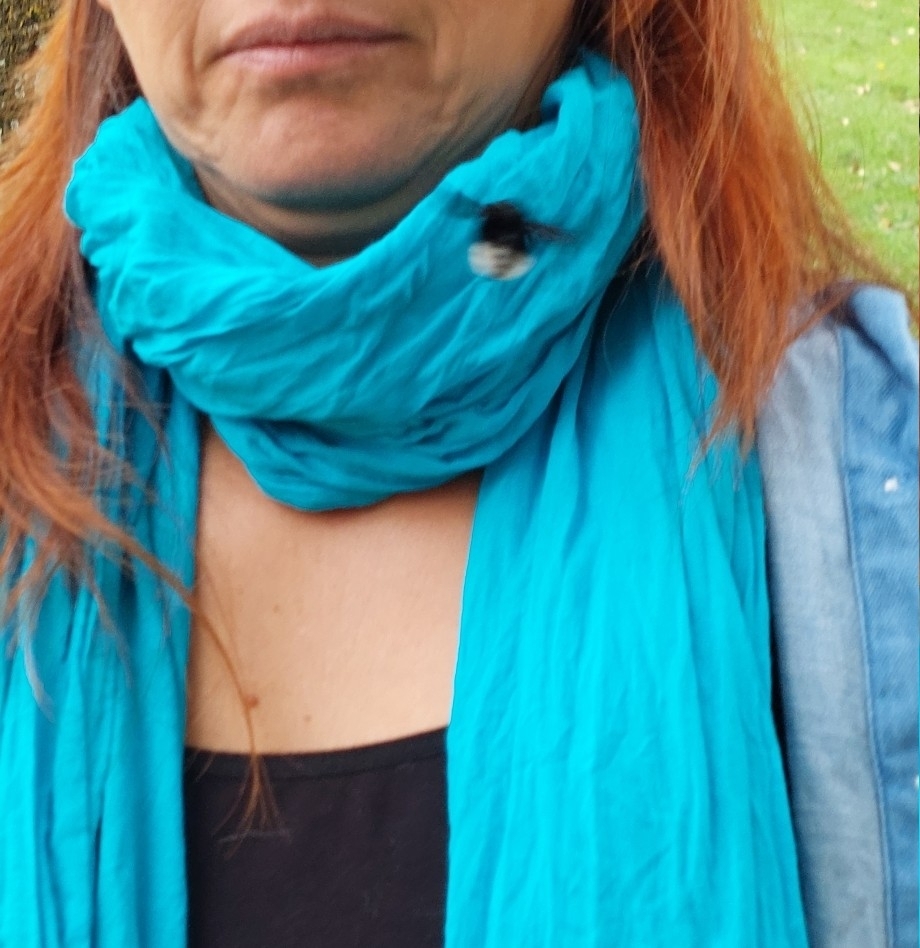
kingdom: Animalia
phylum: Arthropoda
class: Insecta
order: Hymenoptera
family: Apidae
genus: Bombus
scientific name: Bombus melaleucus
